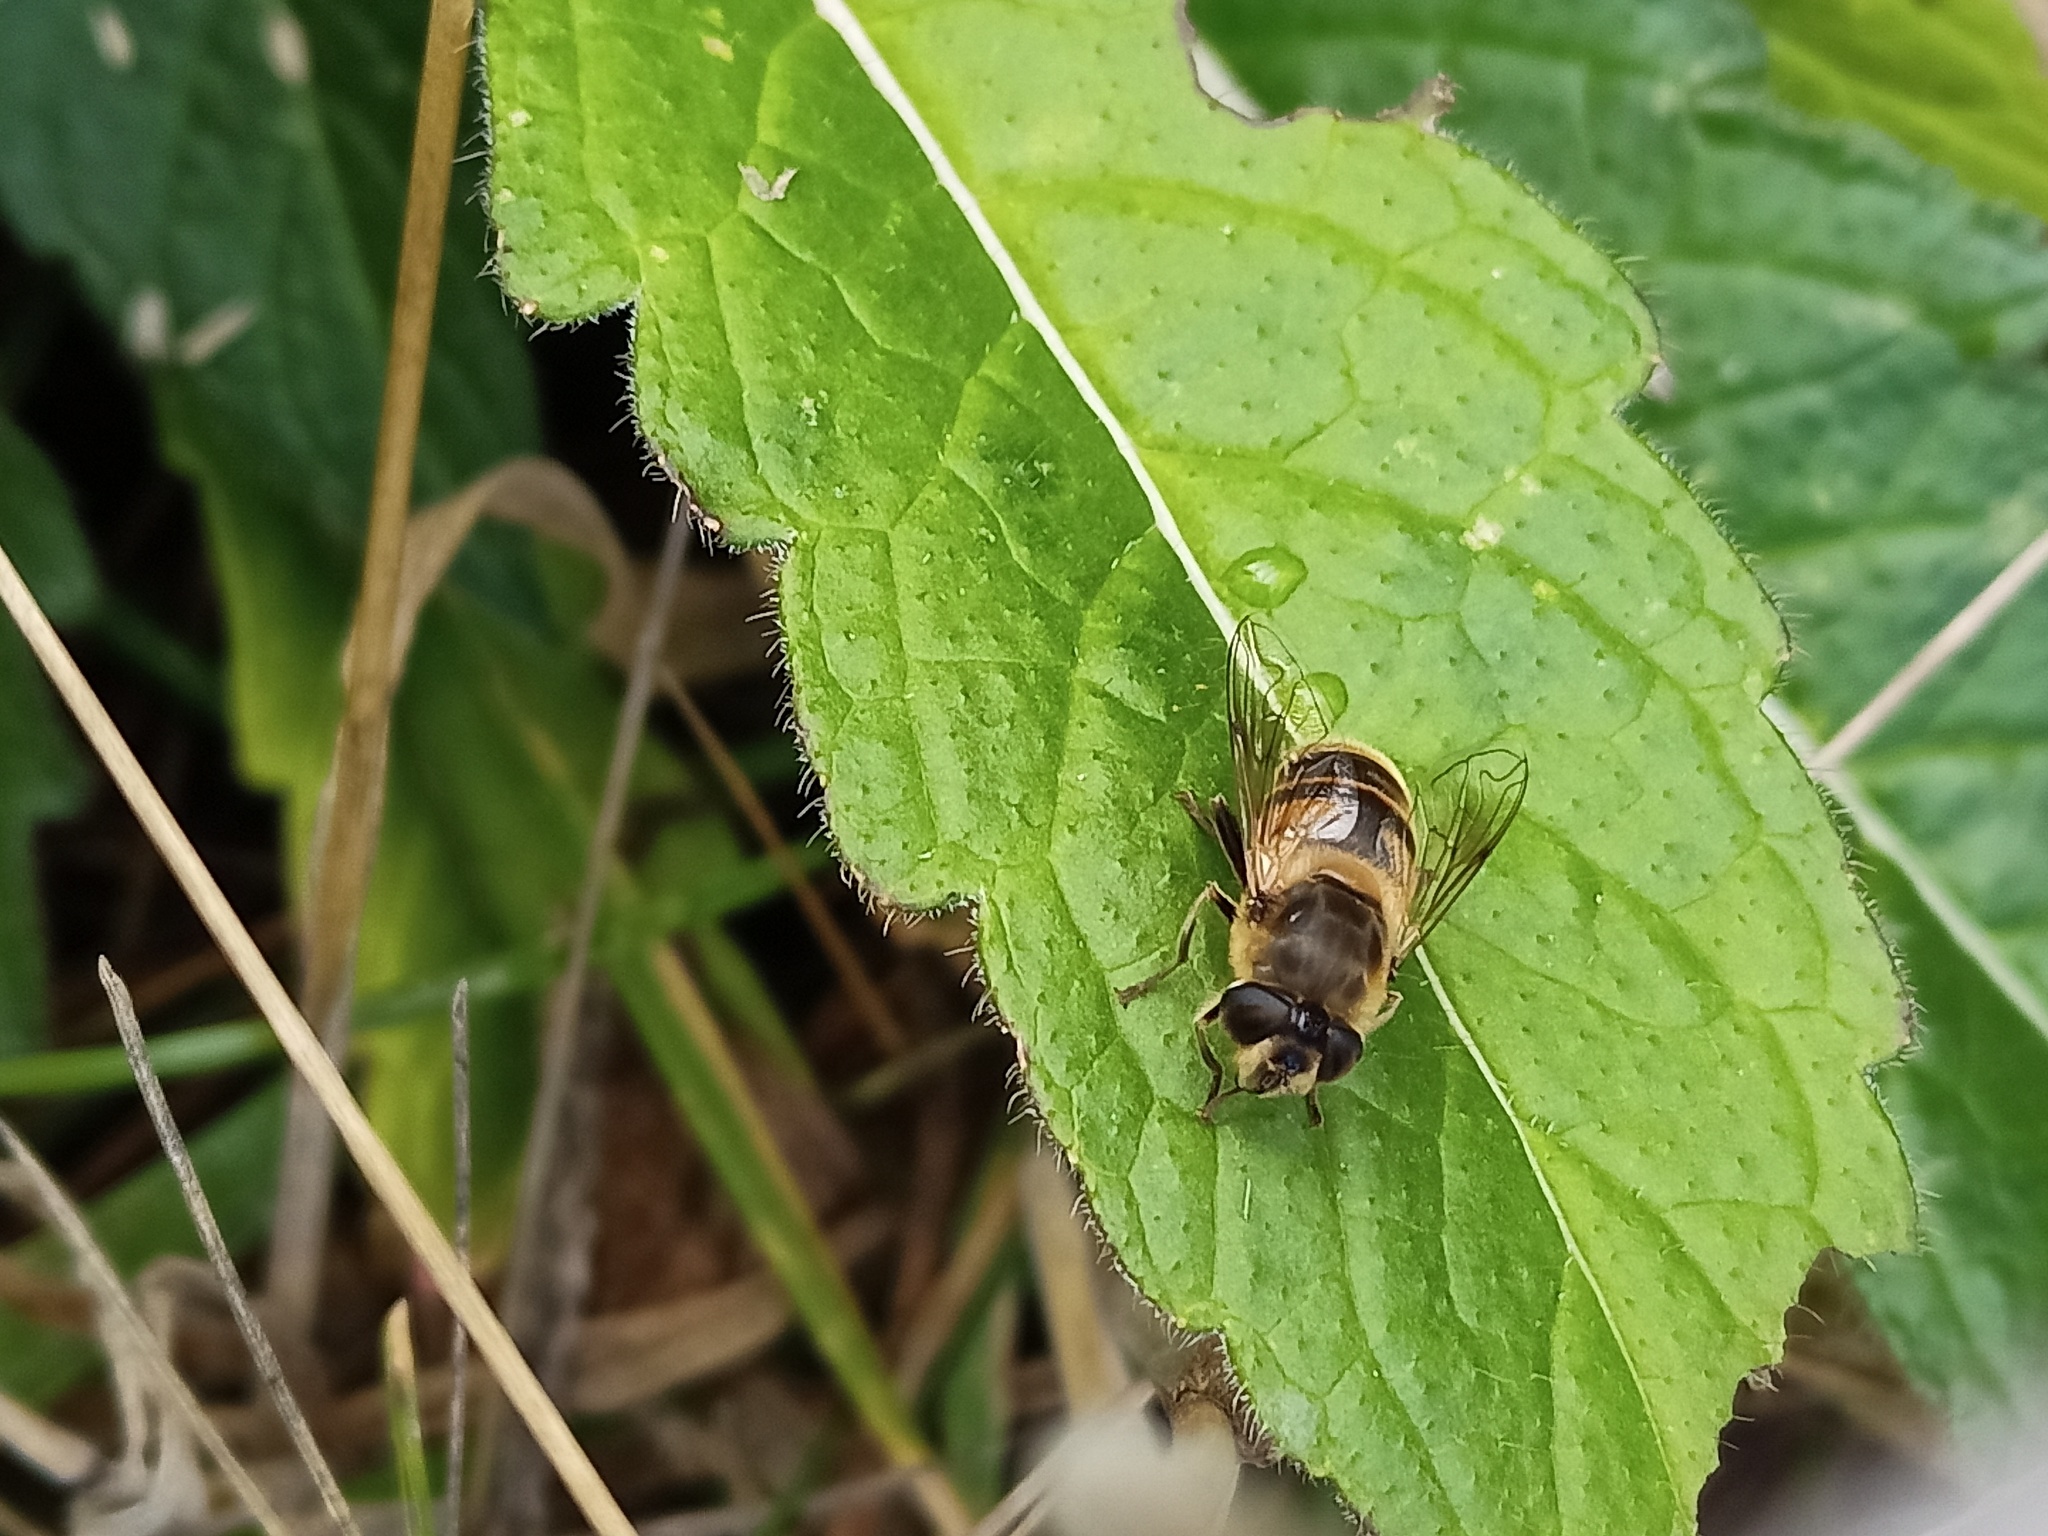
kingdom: Animalia
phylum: Arthropoda
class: Insecta
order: Diptera
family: Syrphidae
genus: Eristalis
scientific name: Eristalis tenax
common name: Drone fly
